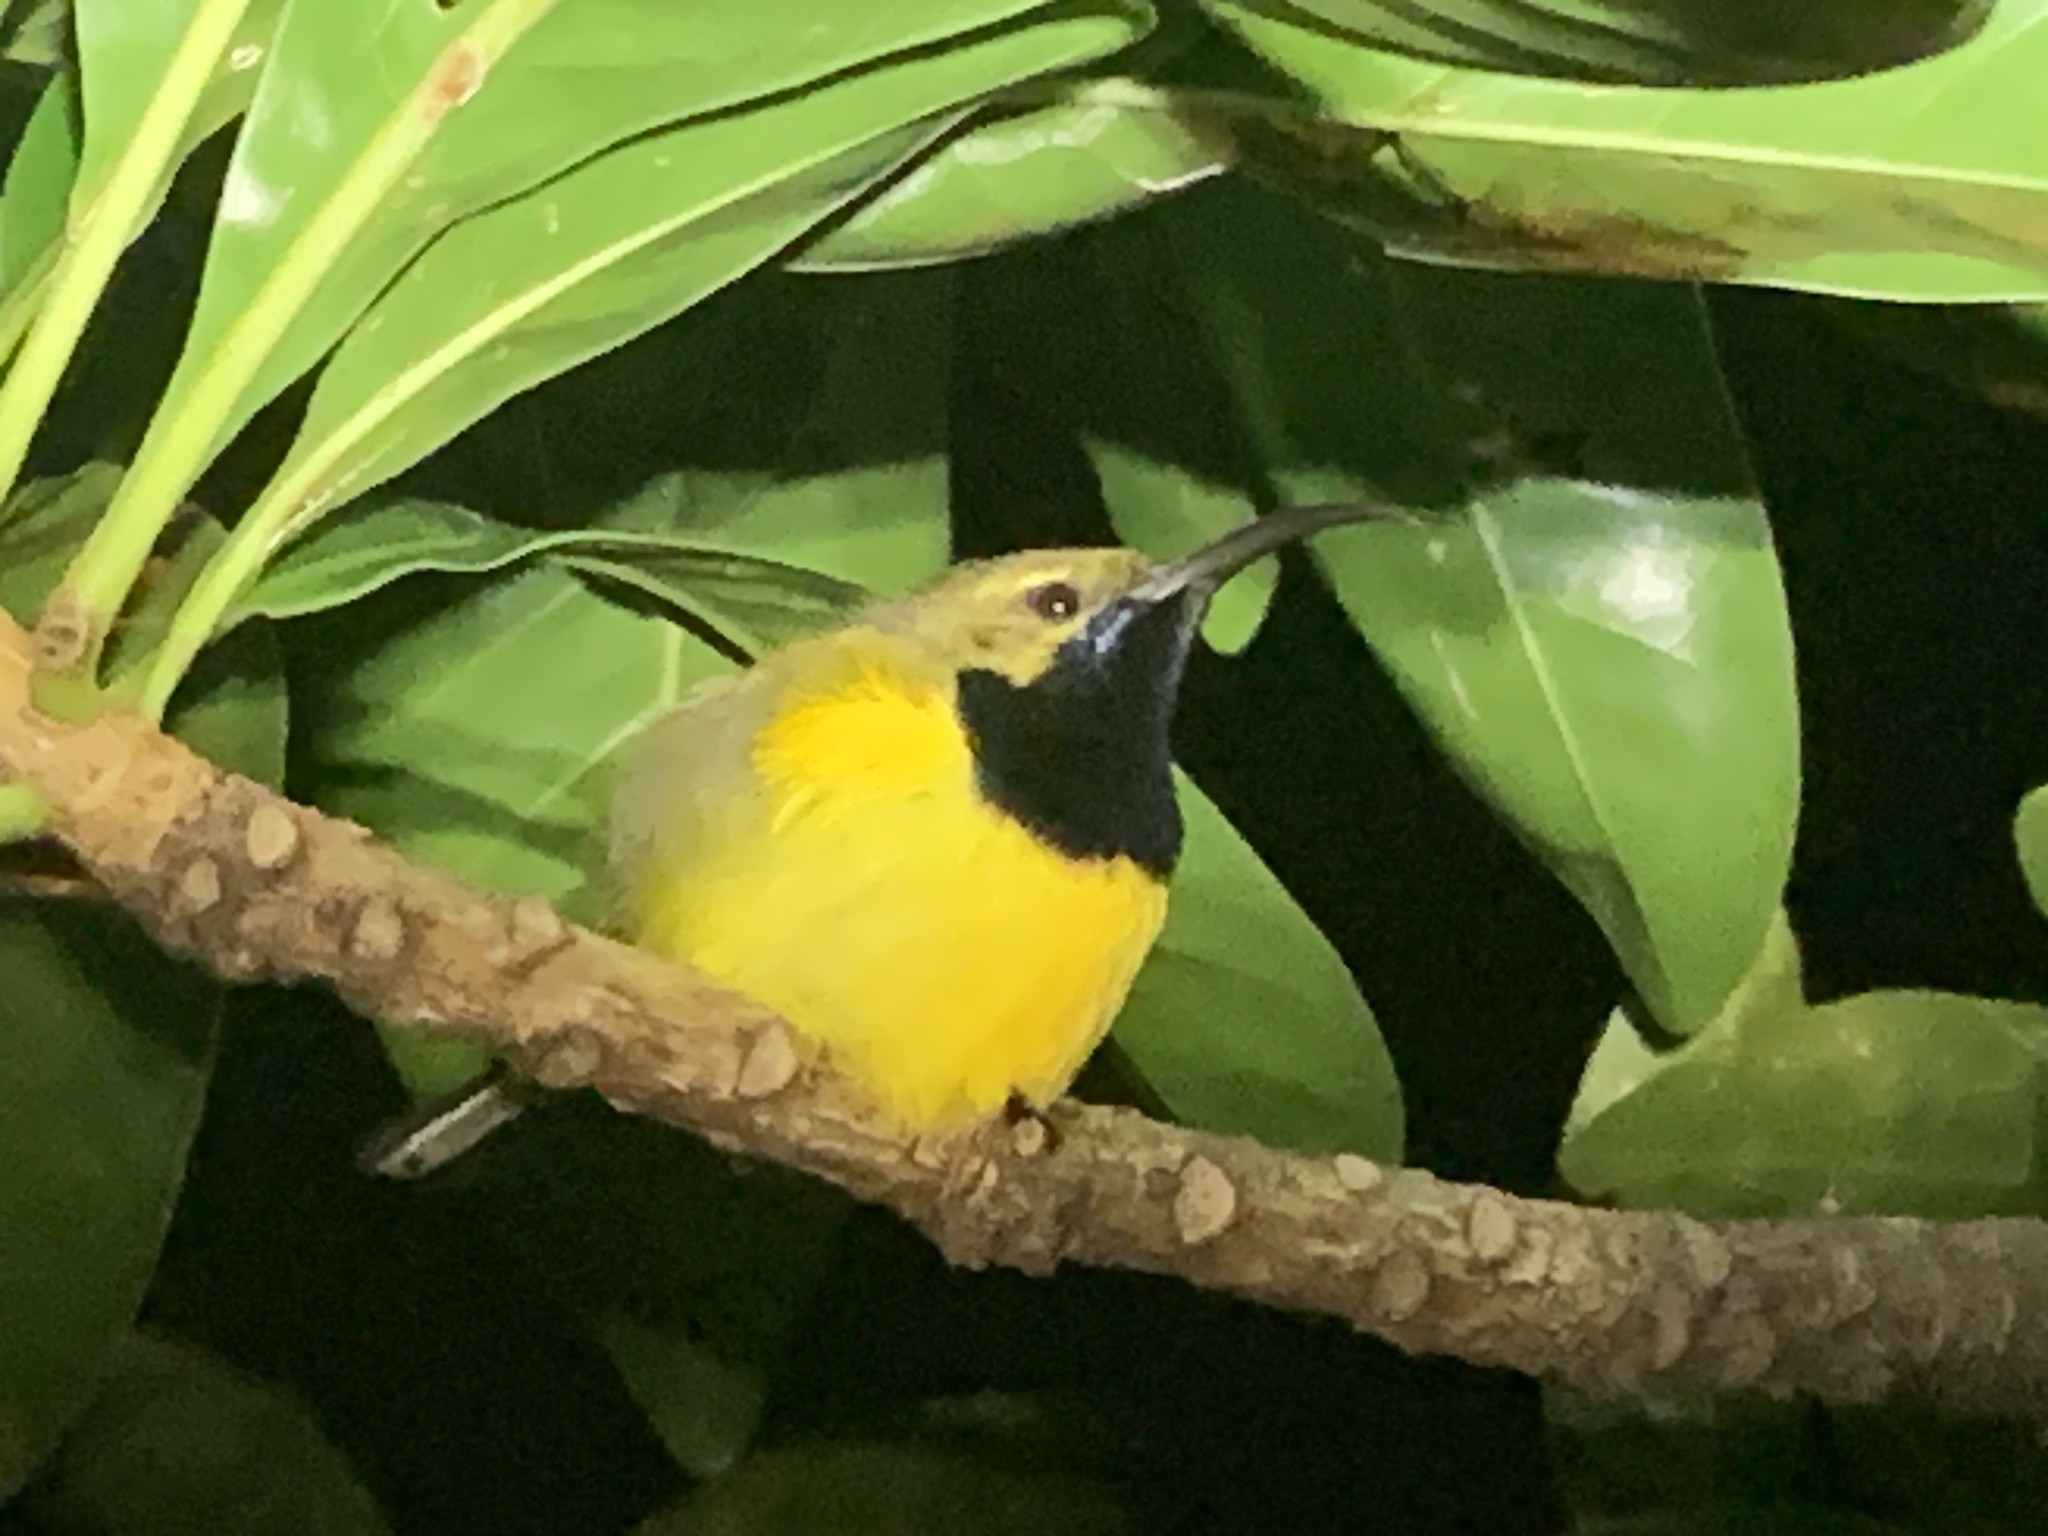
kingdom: Animalia
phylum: Chordata
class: Aves
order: Passeriformes
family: Nectariniidae
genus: Cinnyris
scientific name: Cinnyris
